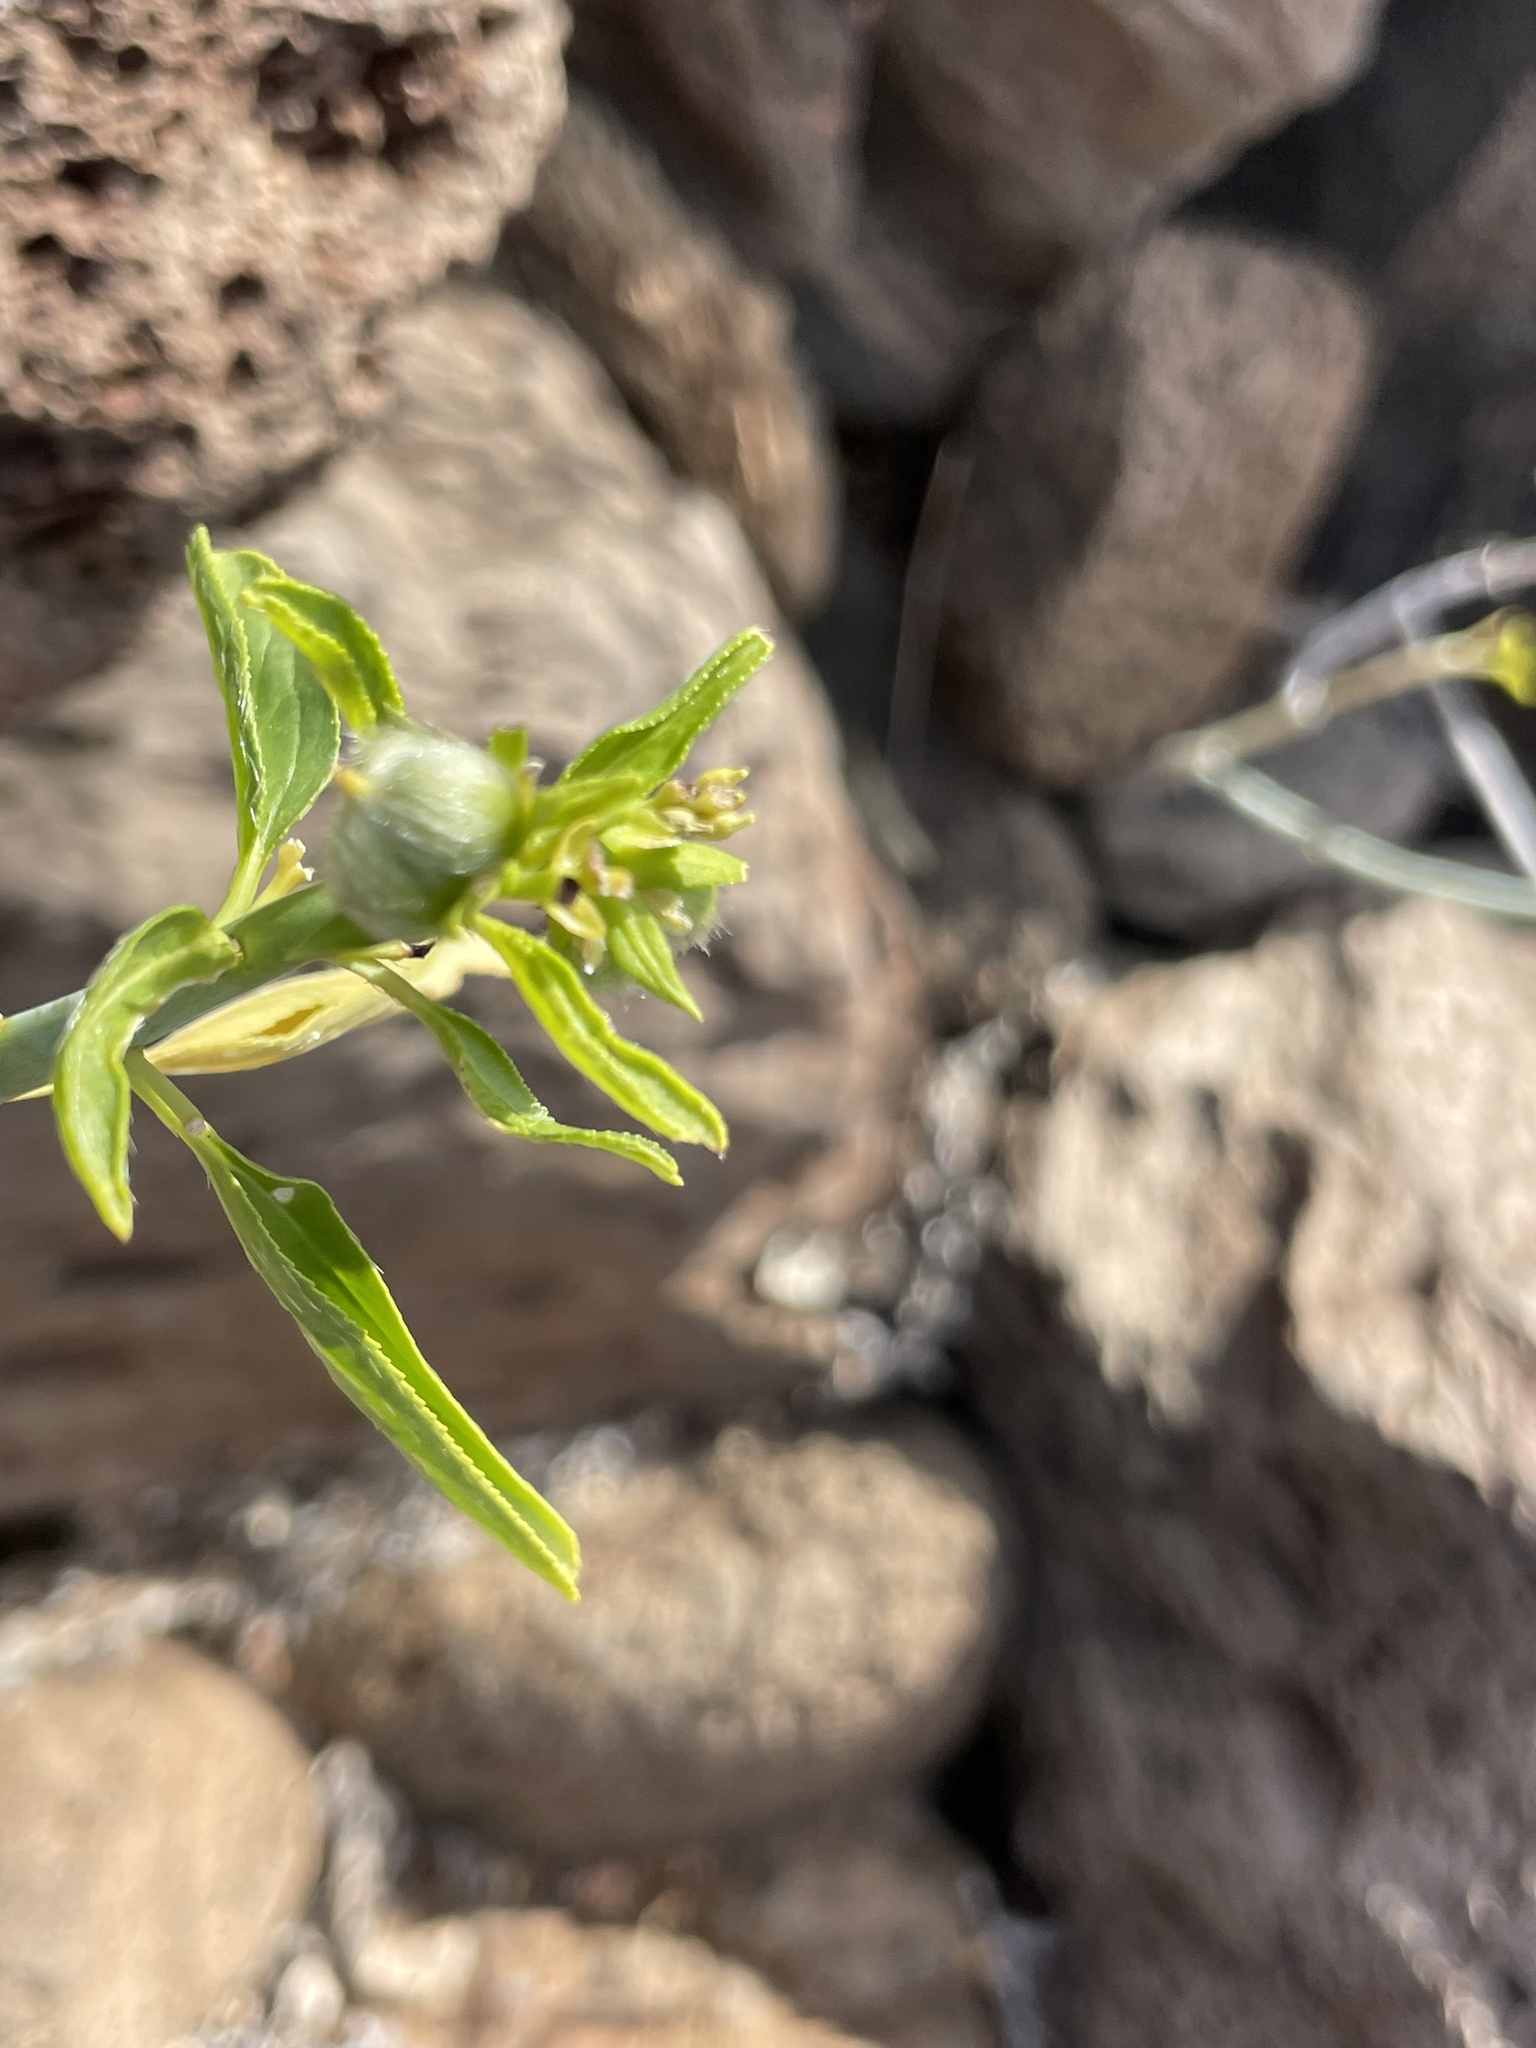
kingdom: Plantae
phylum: Tracheophyta
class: Magnoliopsida
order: Malpighiales
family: Euphorbiaceae
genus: Ditaxis
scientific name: Ditaxis brandegeei
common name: Sonoran silverbush
